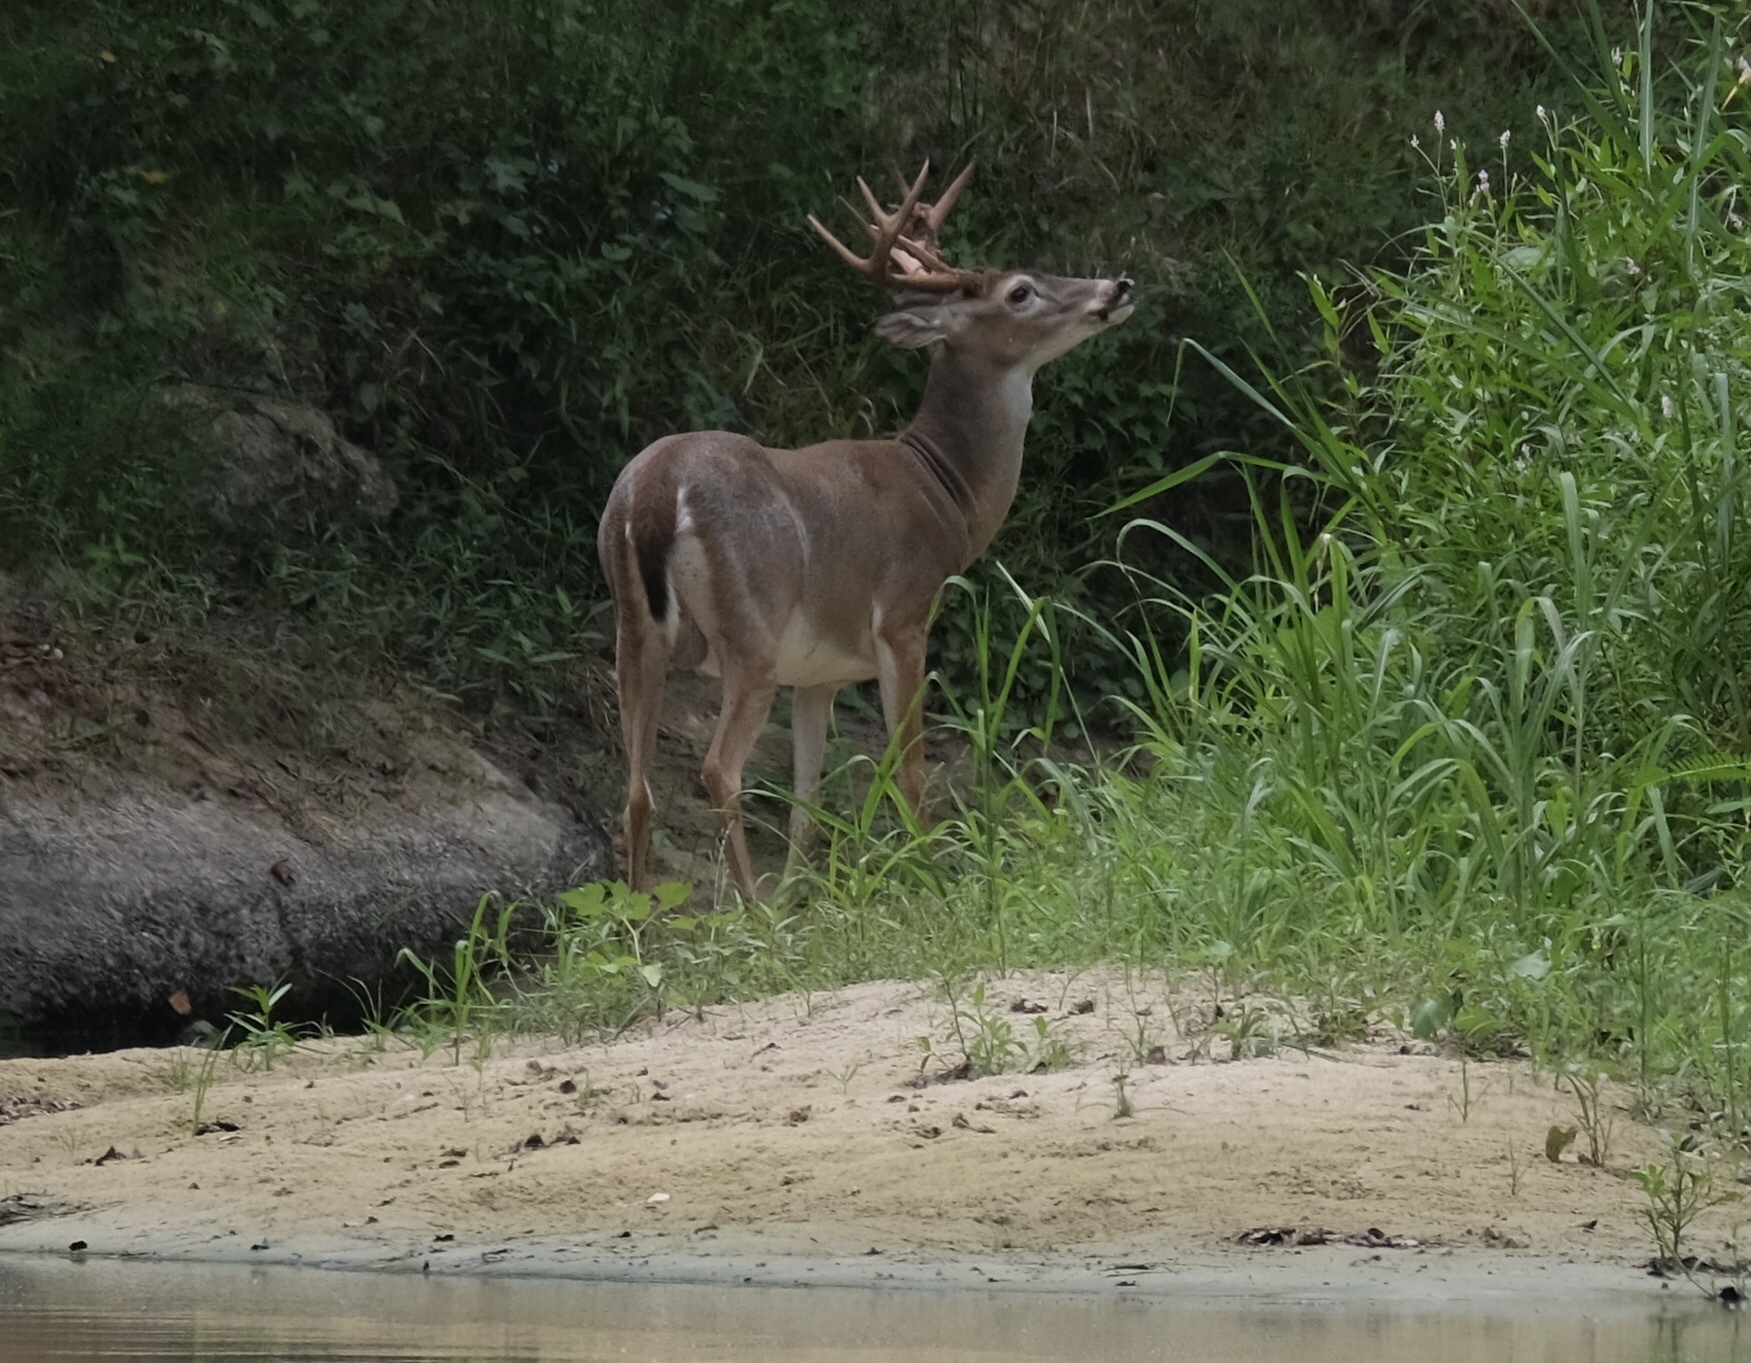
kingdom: Animalia
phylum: Chordata
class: Mammalia
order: Artiodactyla
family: Cervidae
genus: Odocoileus
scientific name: Odocoileus virginianus
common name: White-tailed deer
